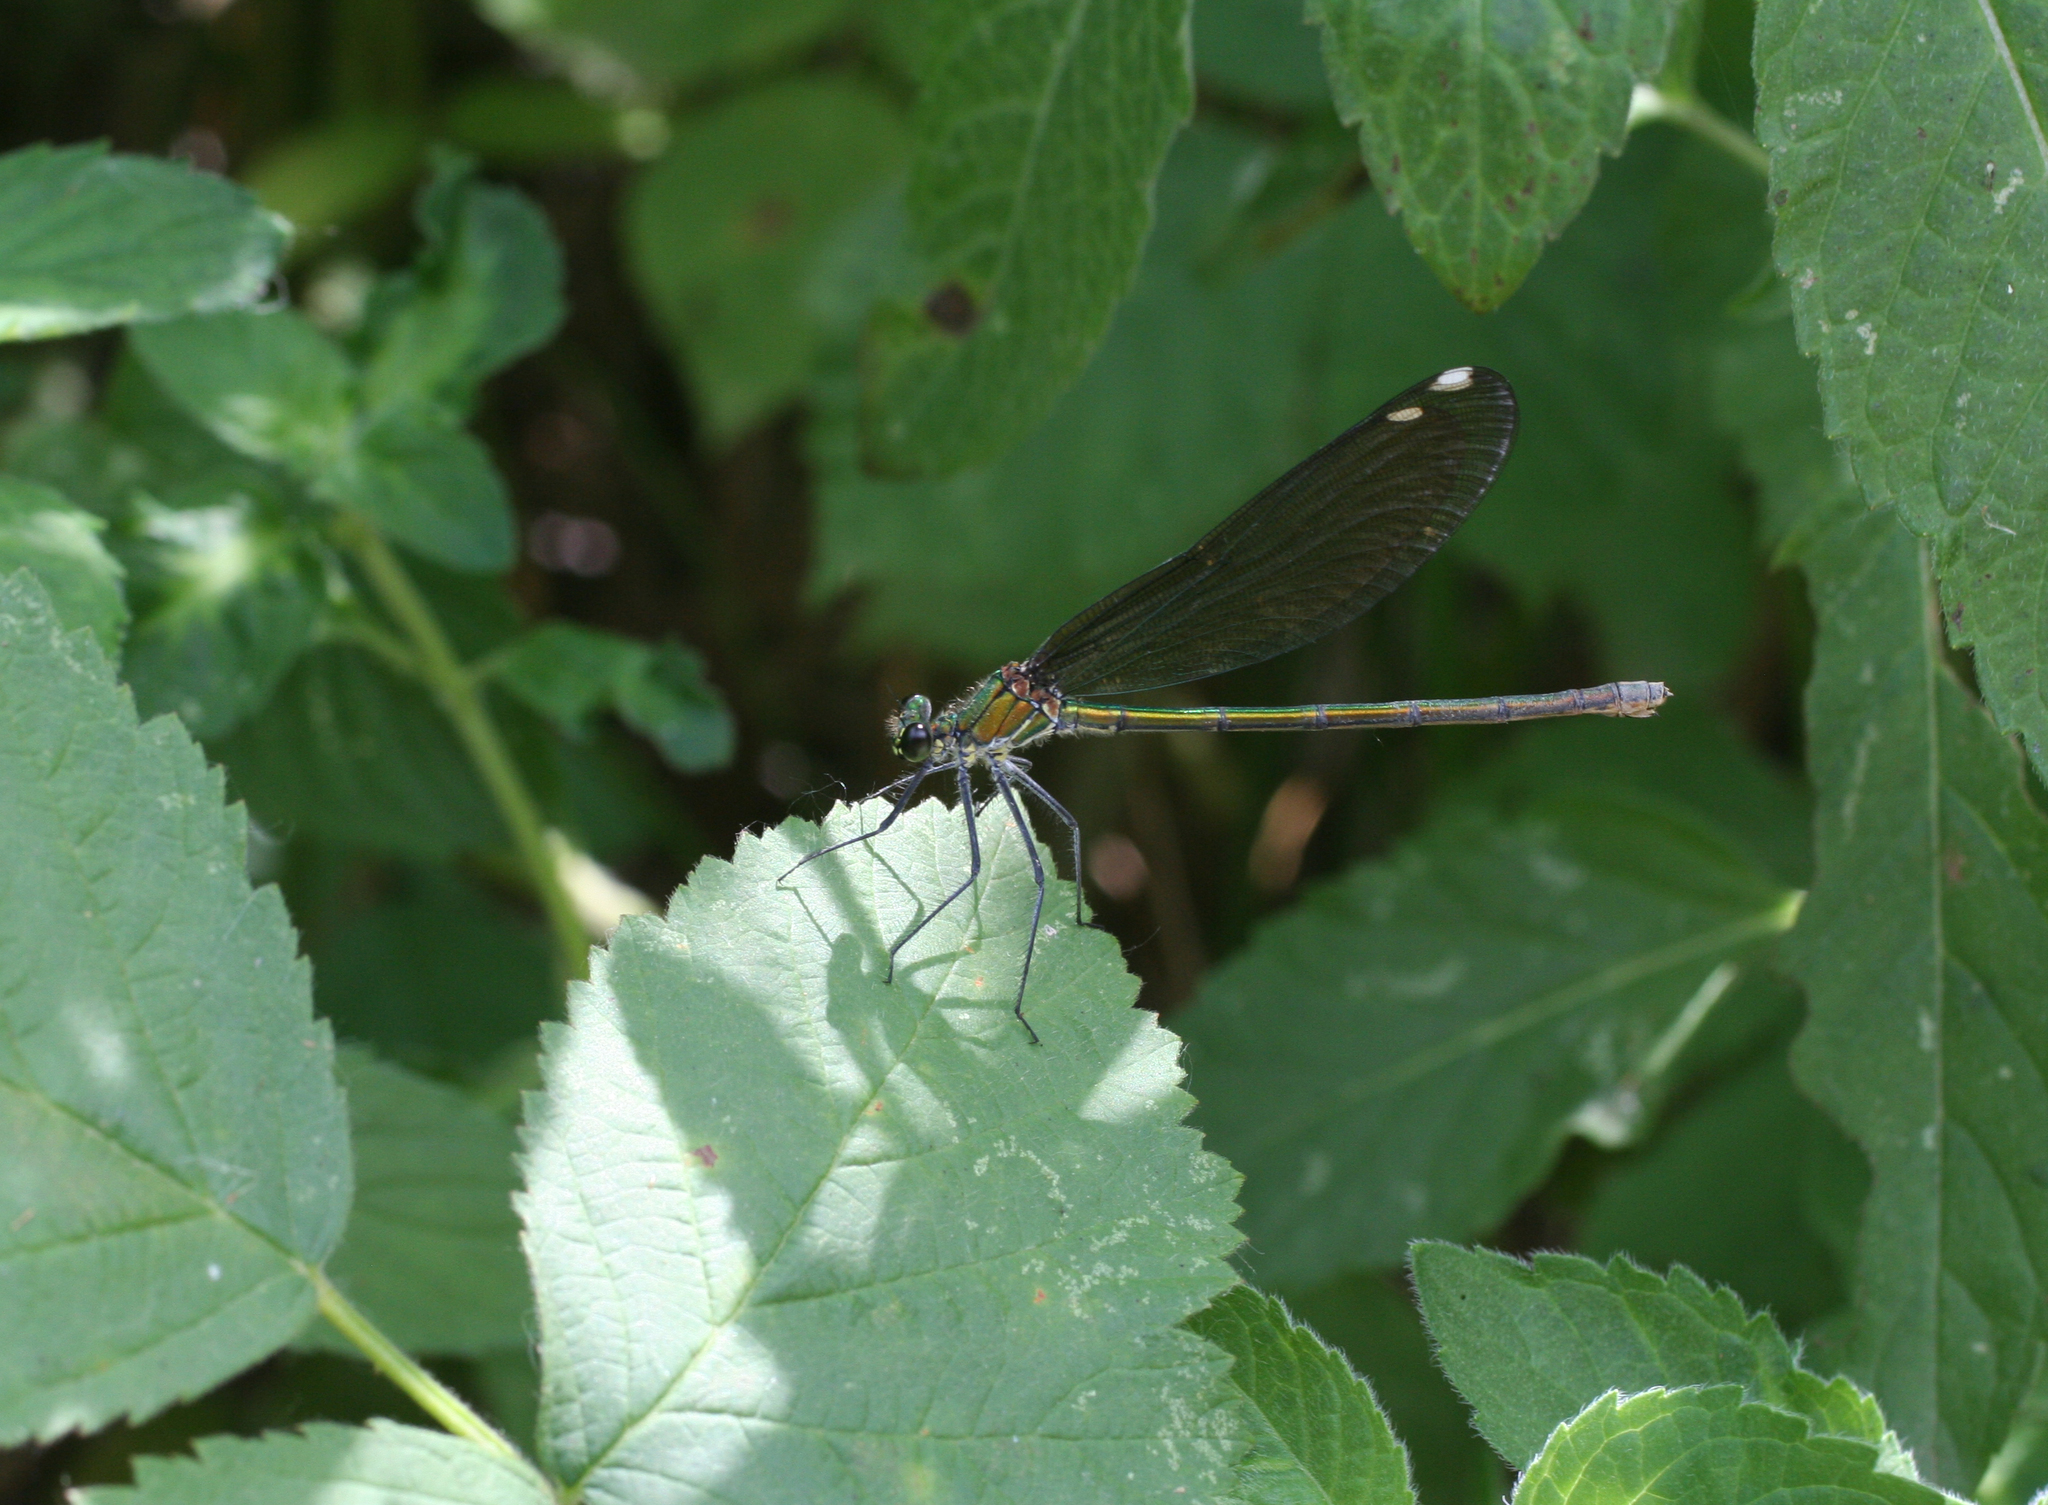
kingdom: Animalia
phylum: Arthropoda
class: Insecta
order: Odonata
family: Calopterygidae
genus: Calopteryx
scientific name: Calopteryx splendens
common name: Banded demoiselle
